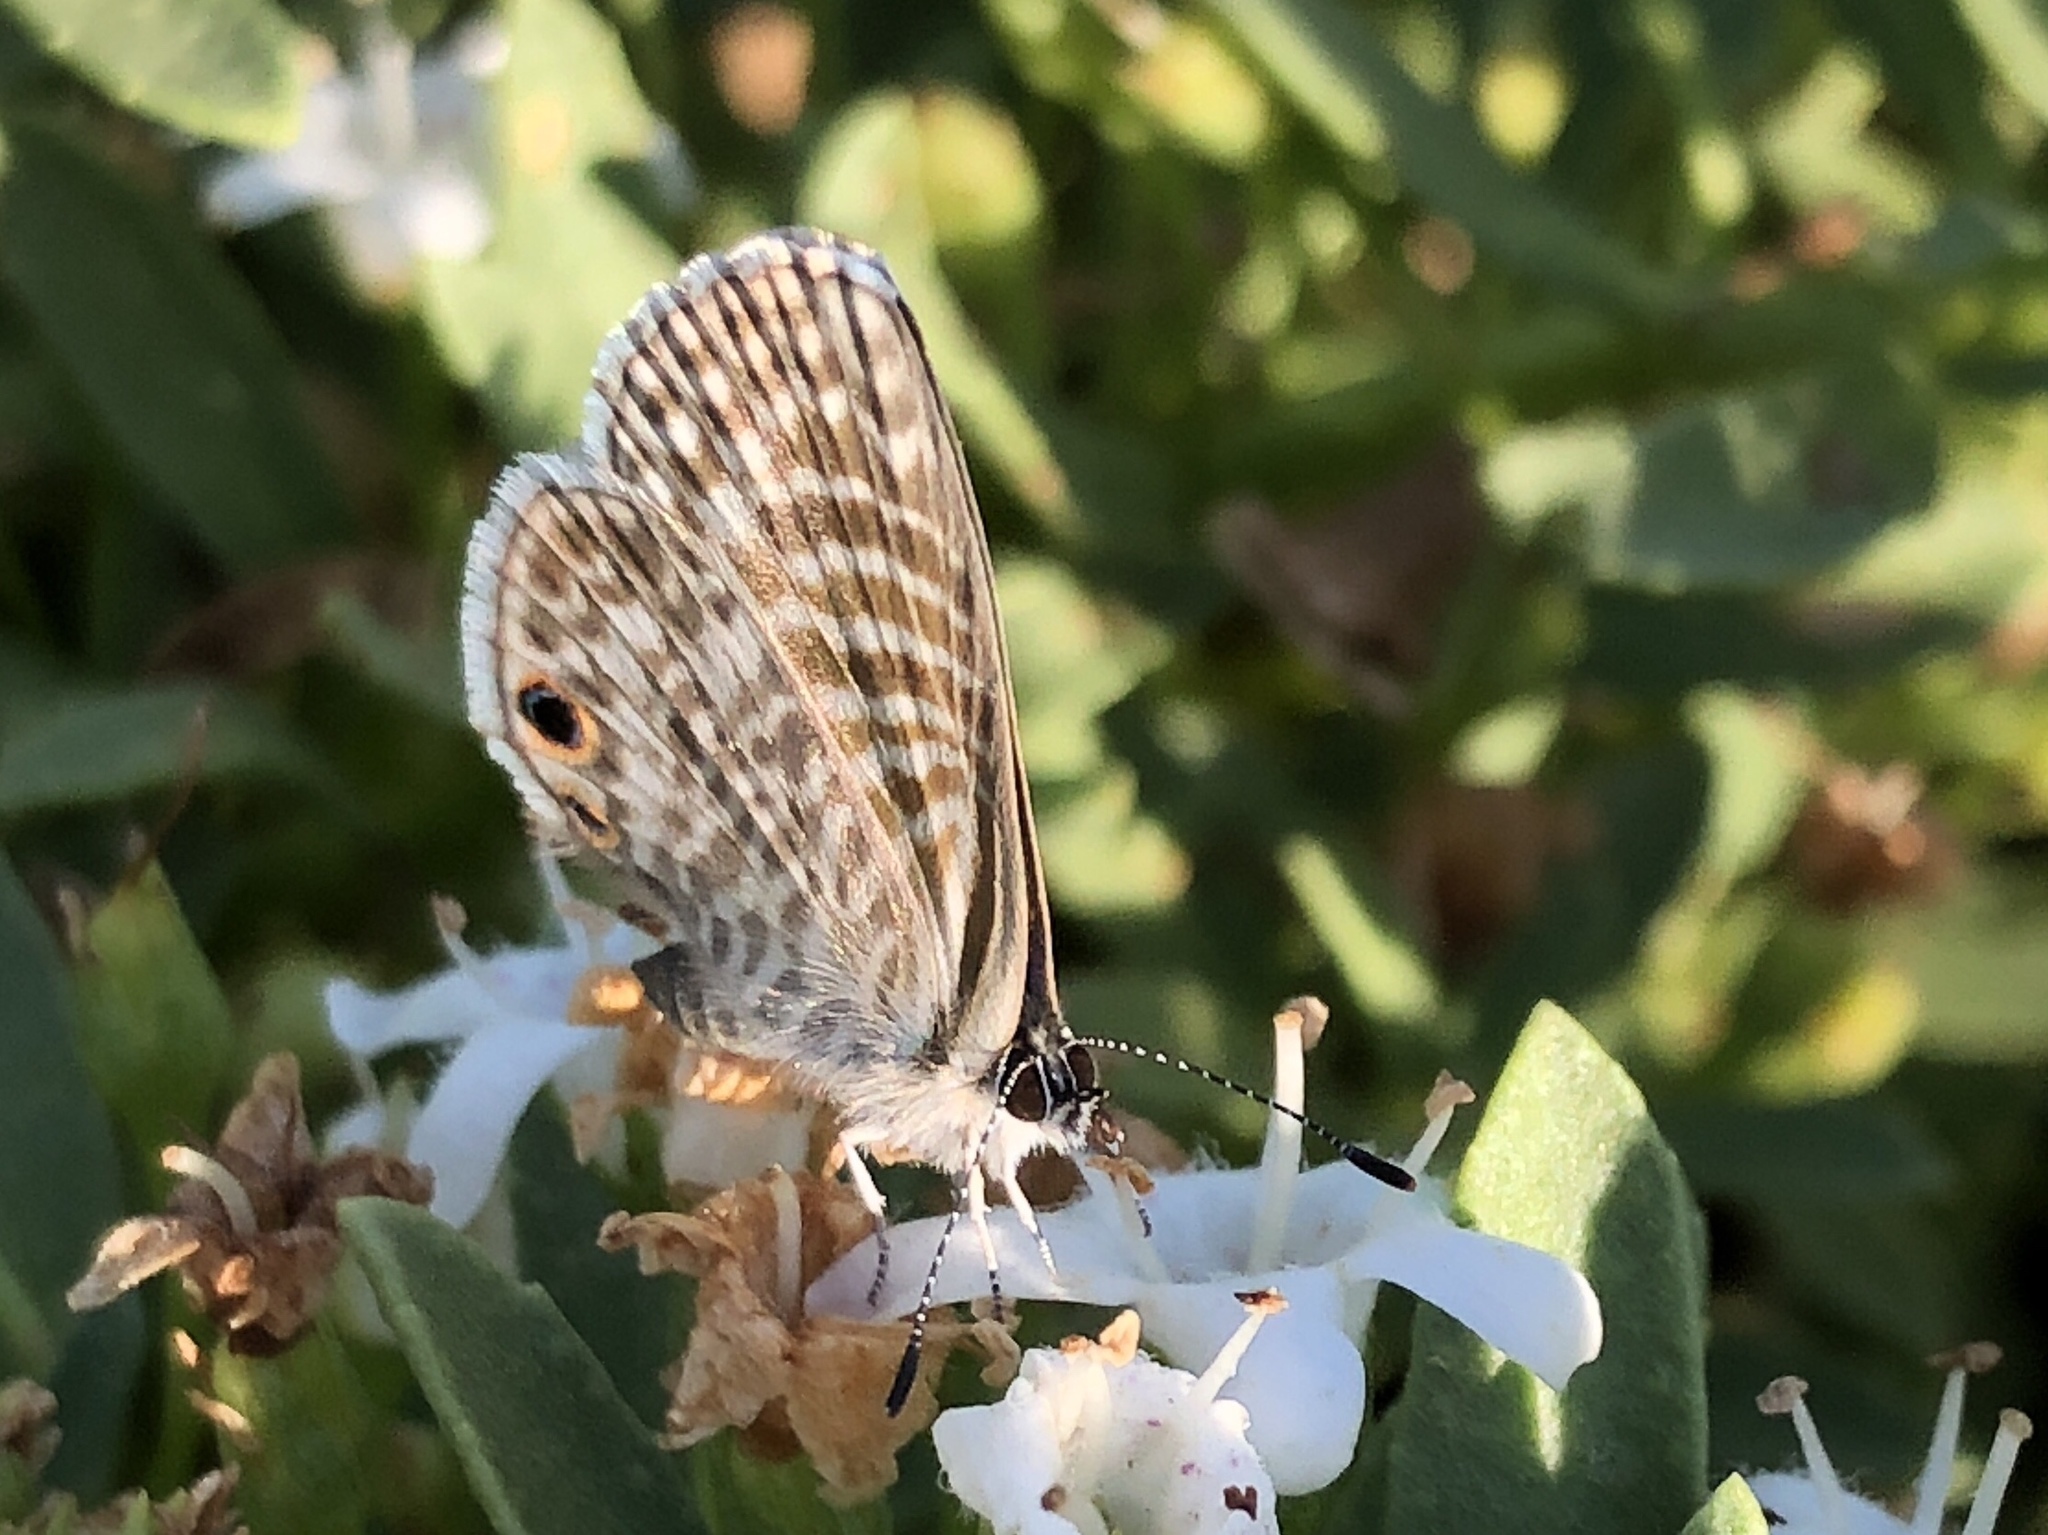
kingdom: Animalia
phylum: Arthropoda
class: Insecta
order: Lepidoptera
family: Lycaenidae
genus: Leptotes
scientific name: Leptotes marina
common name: Marine blue
